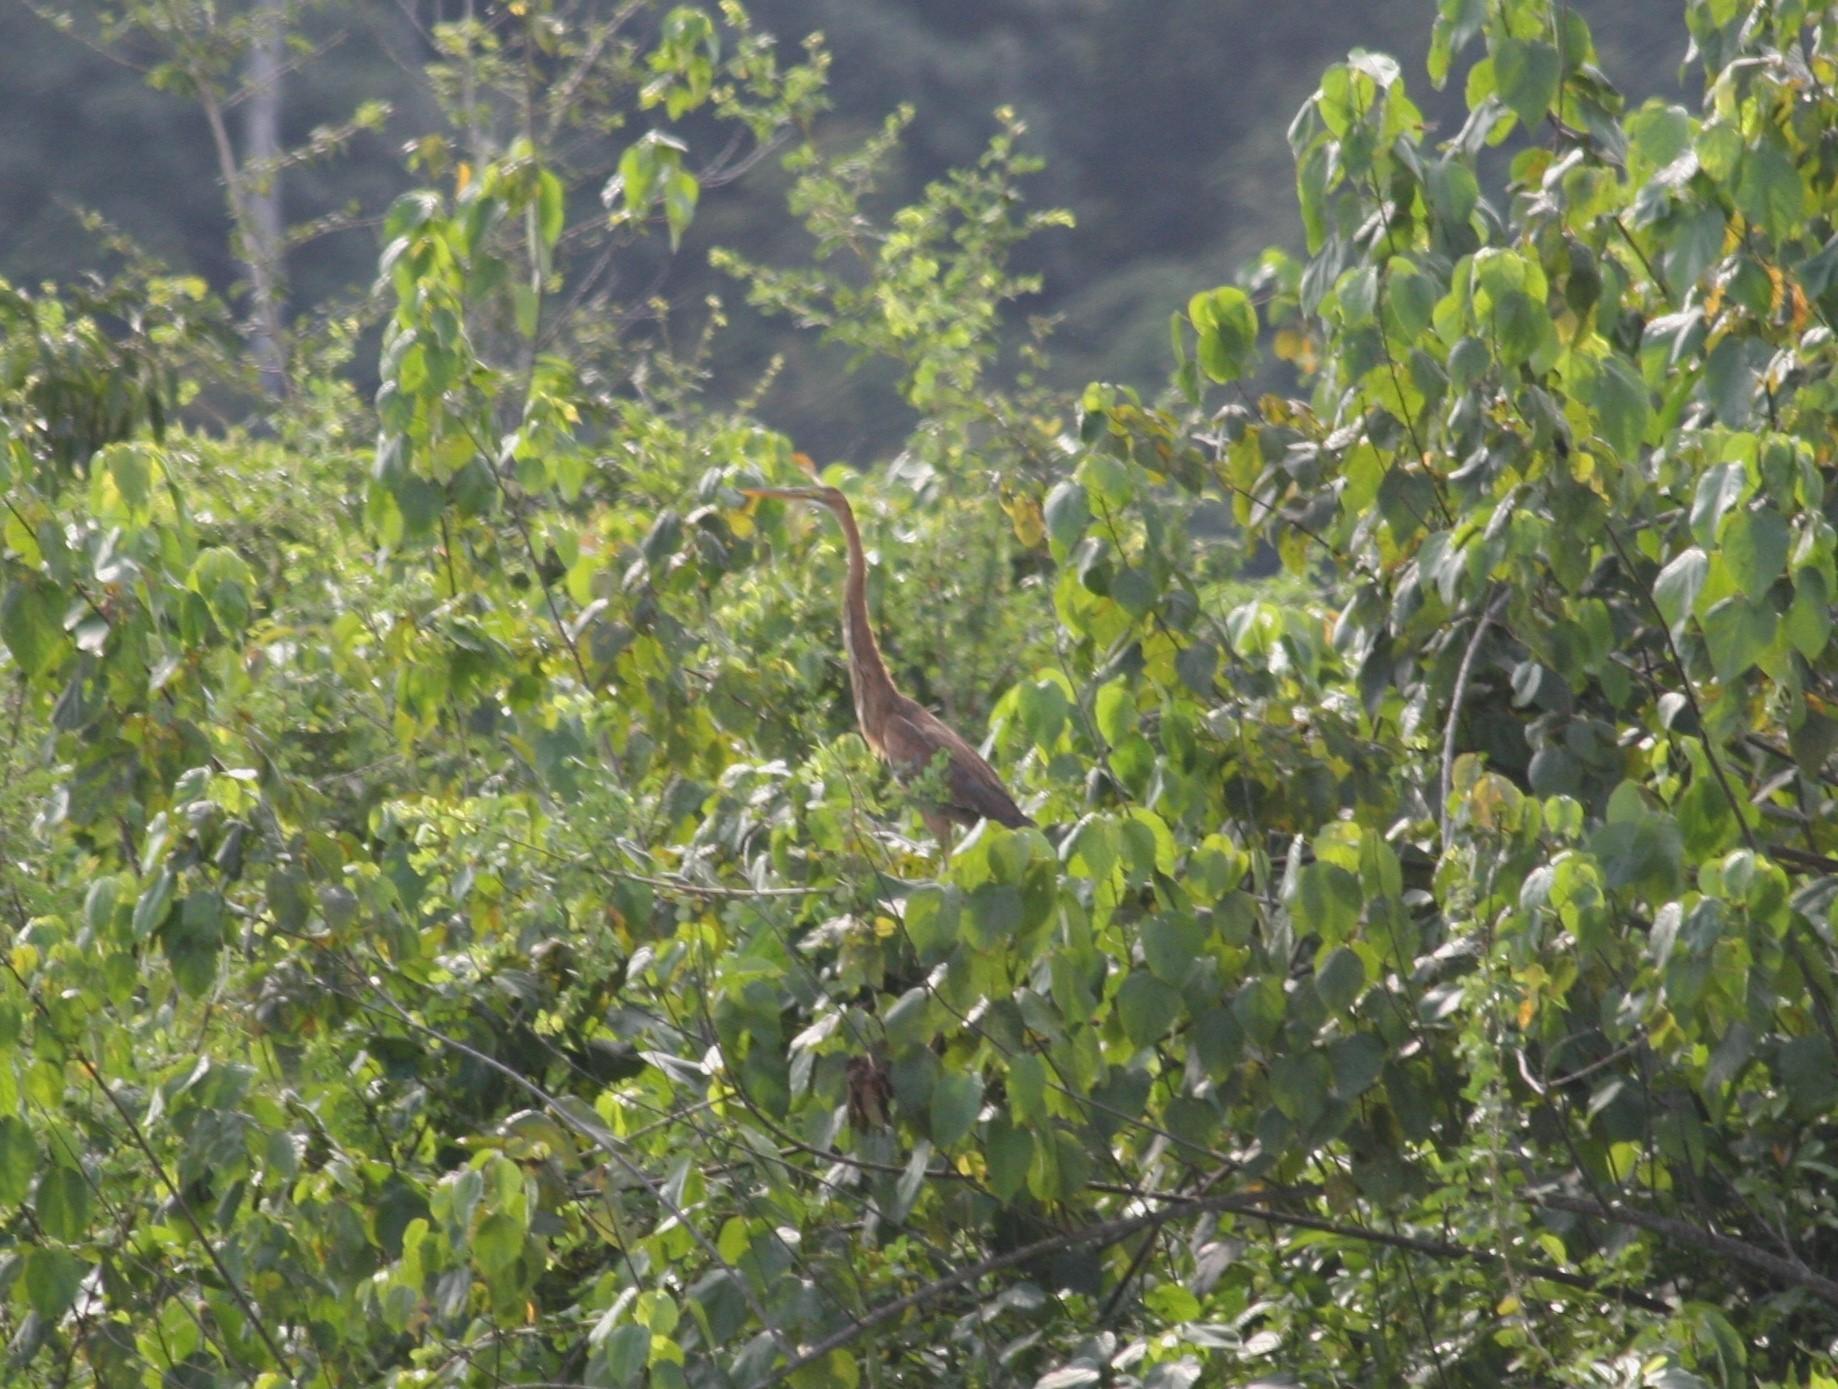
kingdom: Animalia
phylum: Chordata
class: Aves
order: Pelecaniformes
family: Ardeidae
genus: Ardea
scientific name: Ardea purpurea
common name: Purple heron
